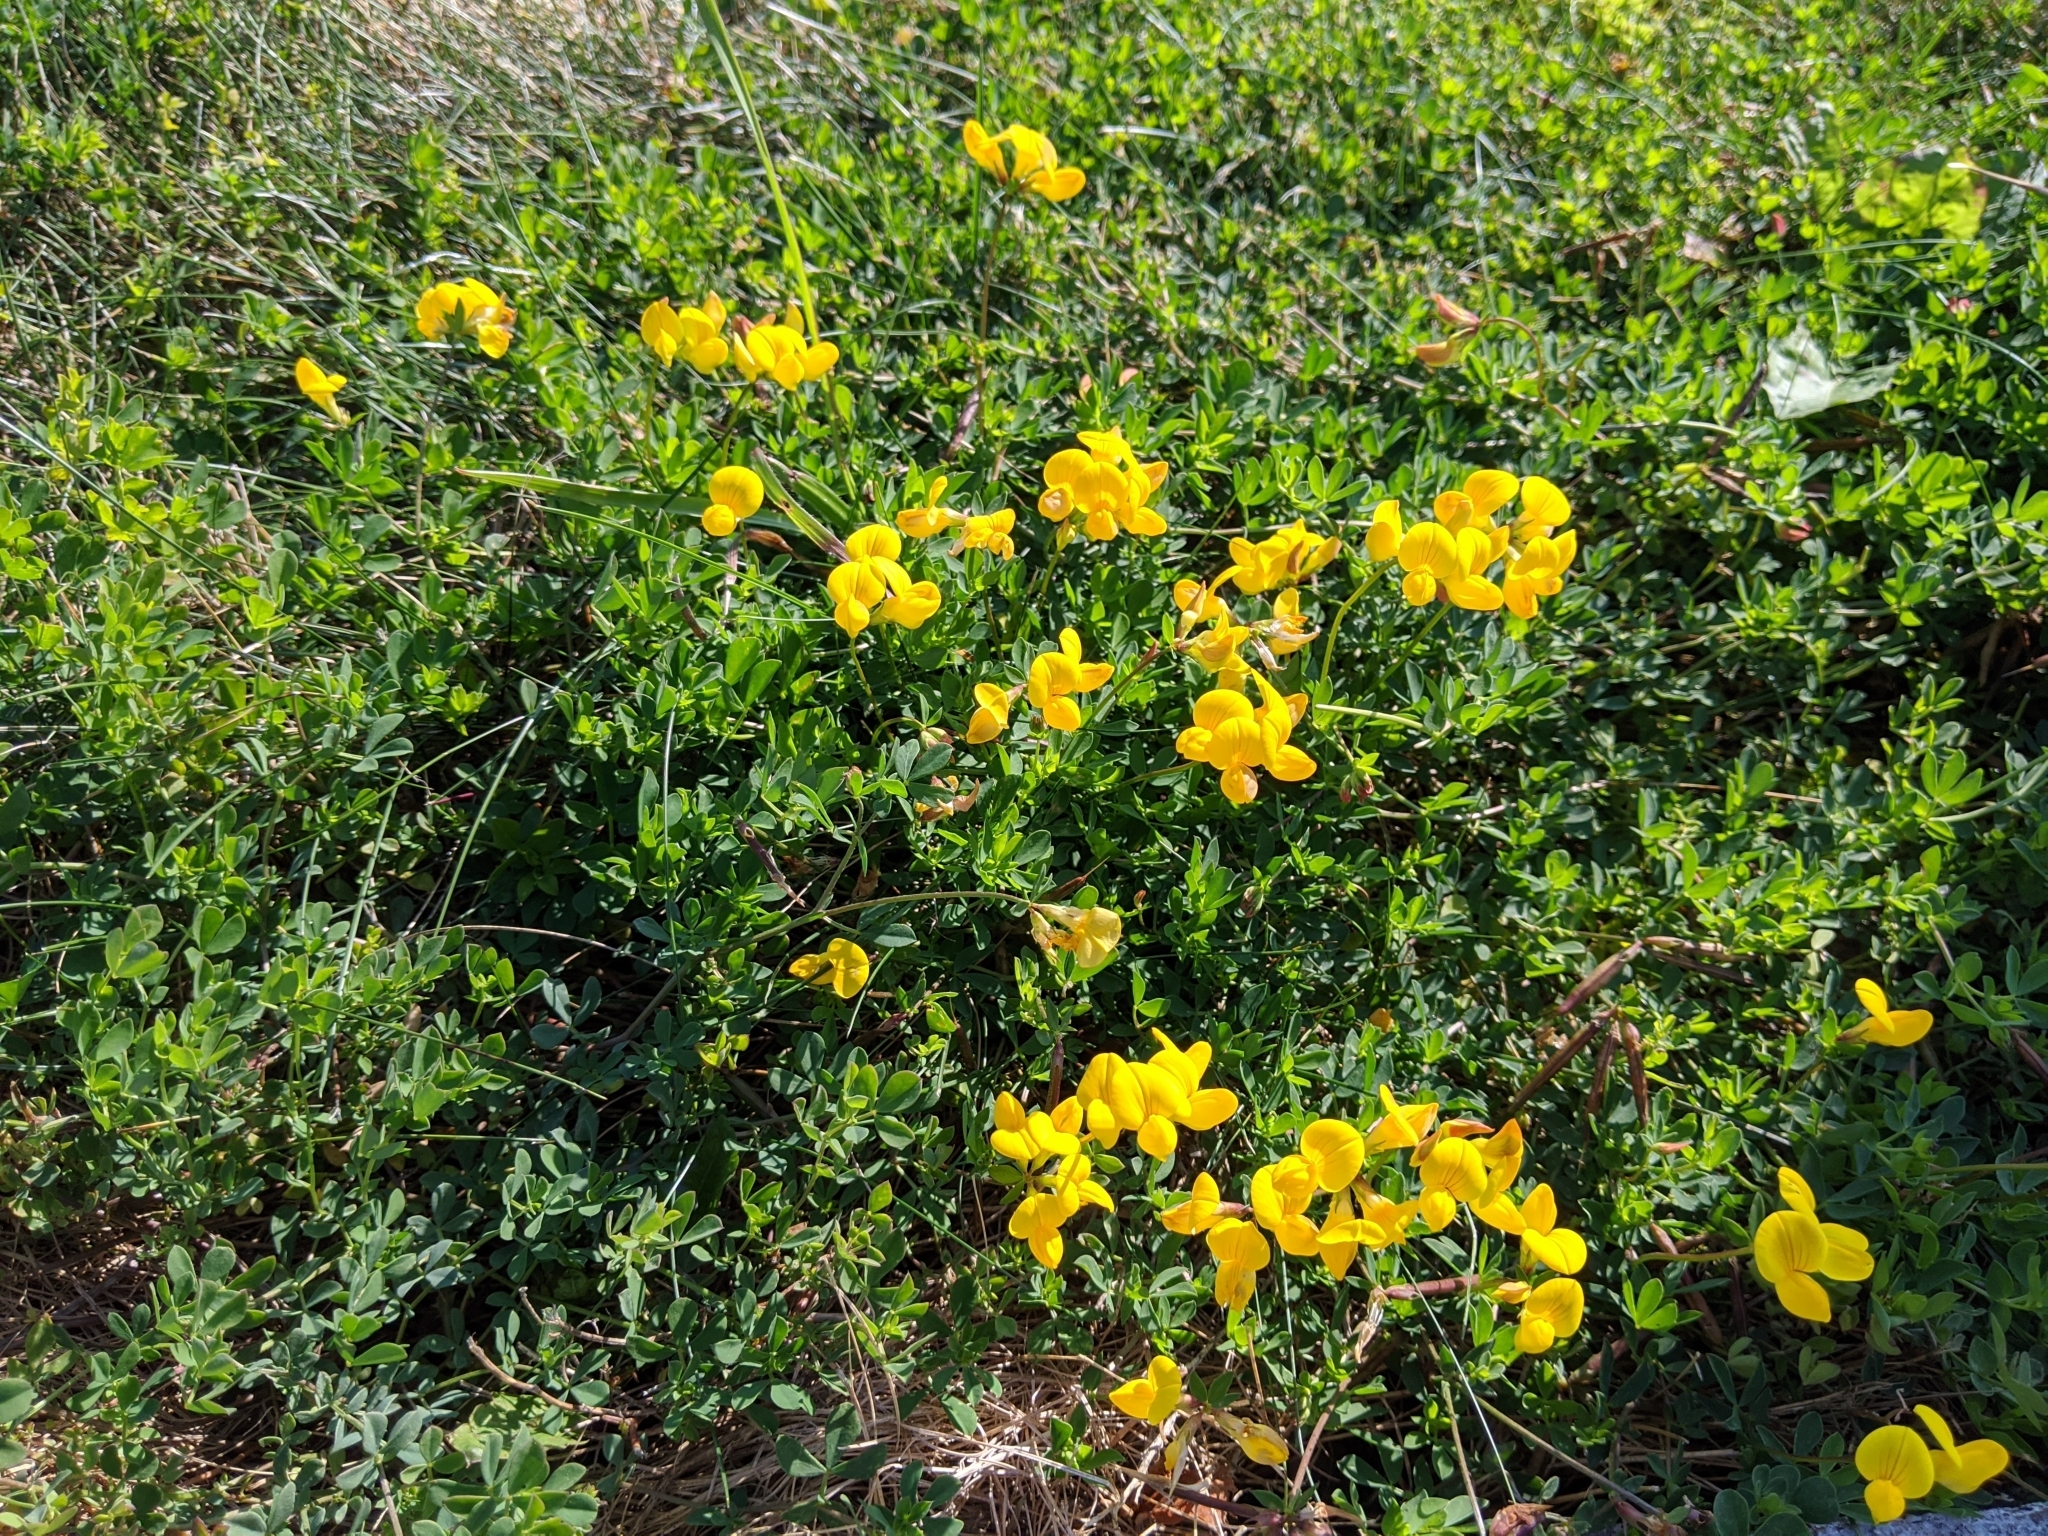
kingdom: Plantae
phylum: Tracheophyta
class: Magnoliopsida
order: Fabales
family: Fabaceae
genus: Lotus
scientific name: Lotus corniculatus
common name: Common bird's-foot-trefoil
